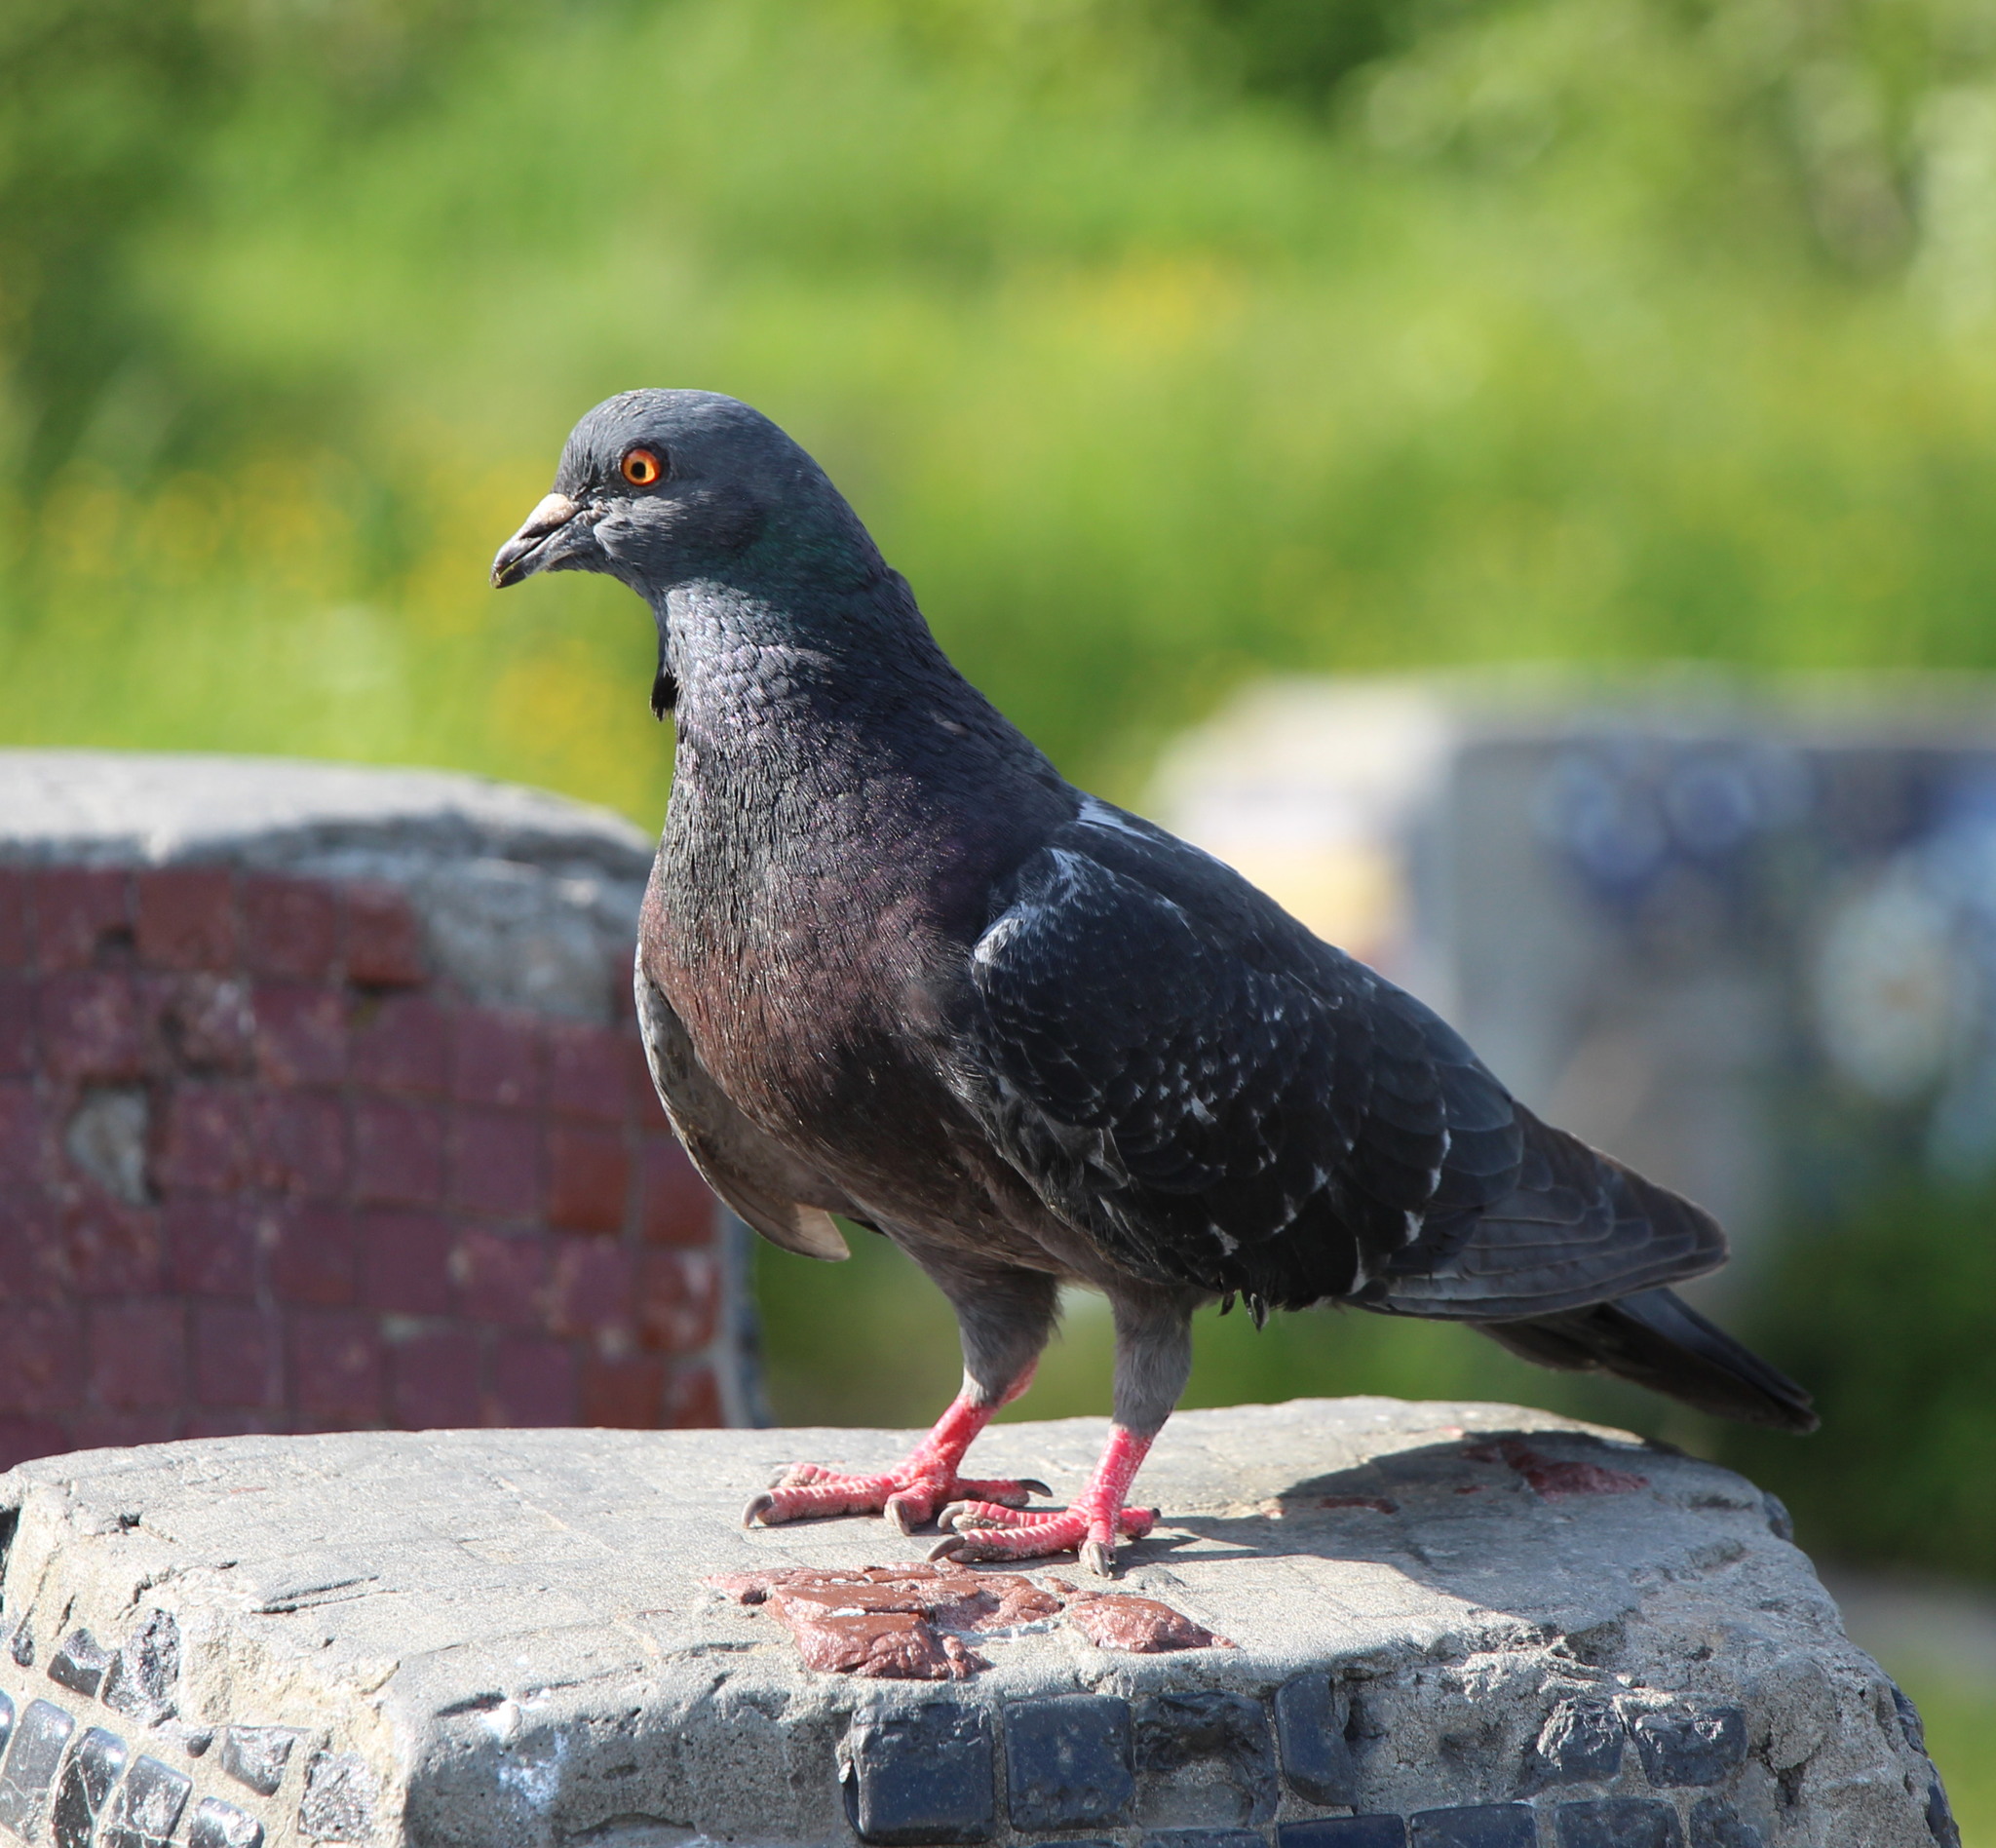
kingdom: Animalia
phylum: Chordata
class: Aves
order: Columbiformes
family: Columbidae
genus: Columba
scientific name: Columba livia
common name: Rock pigeon
